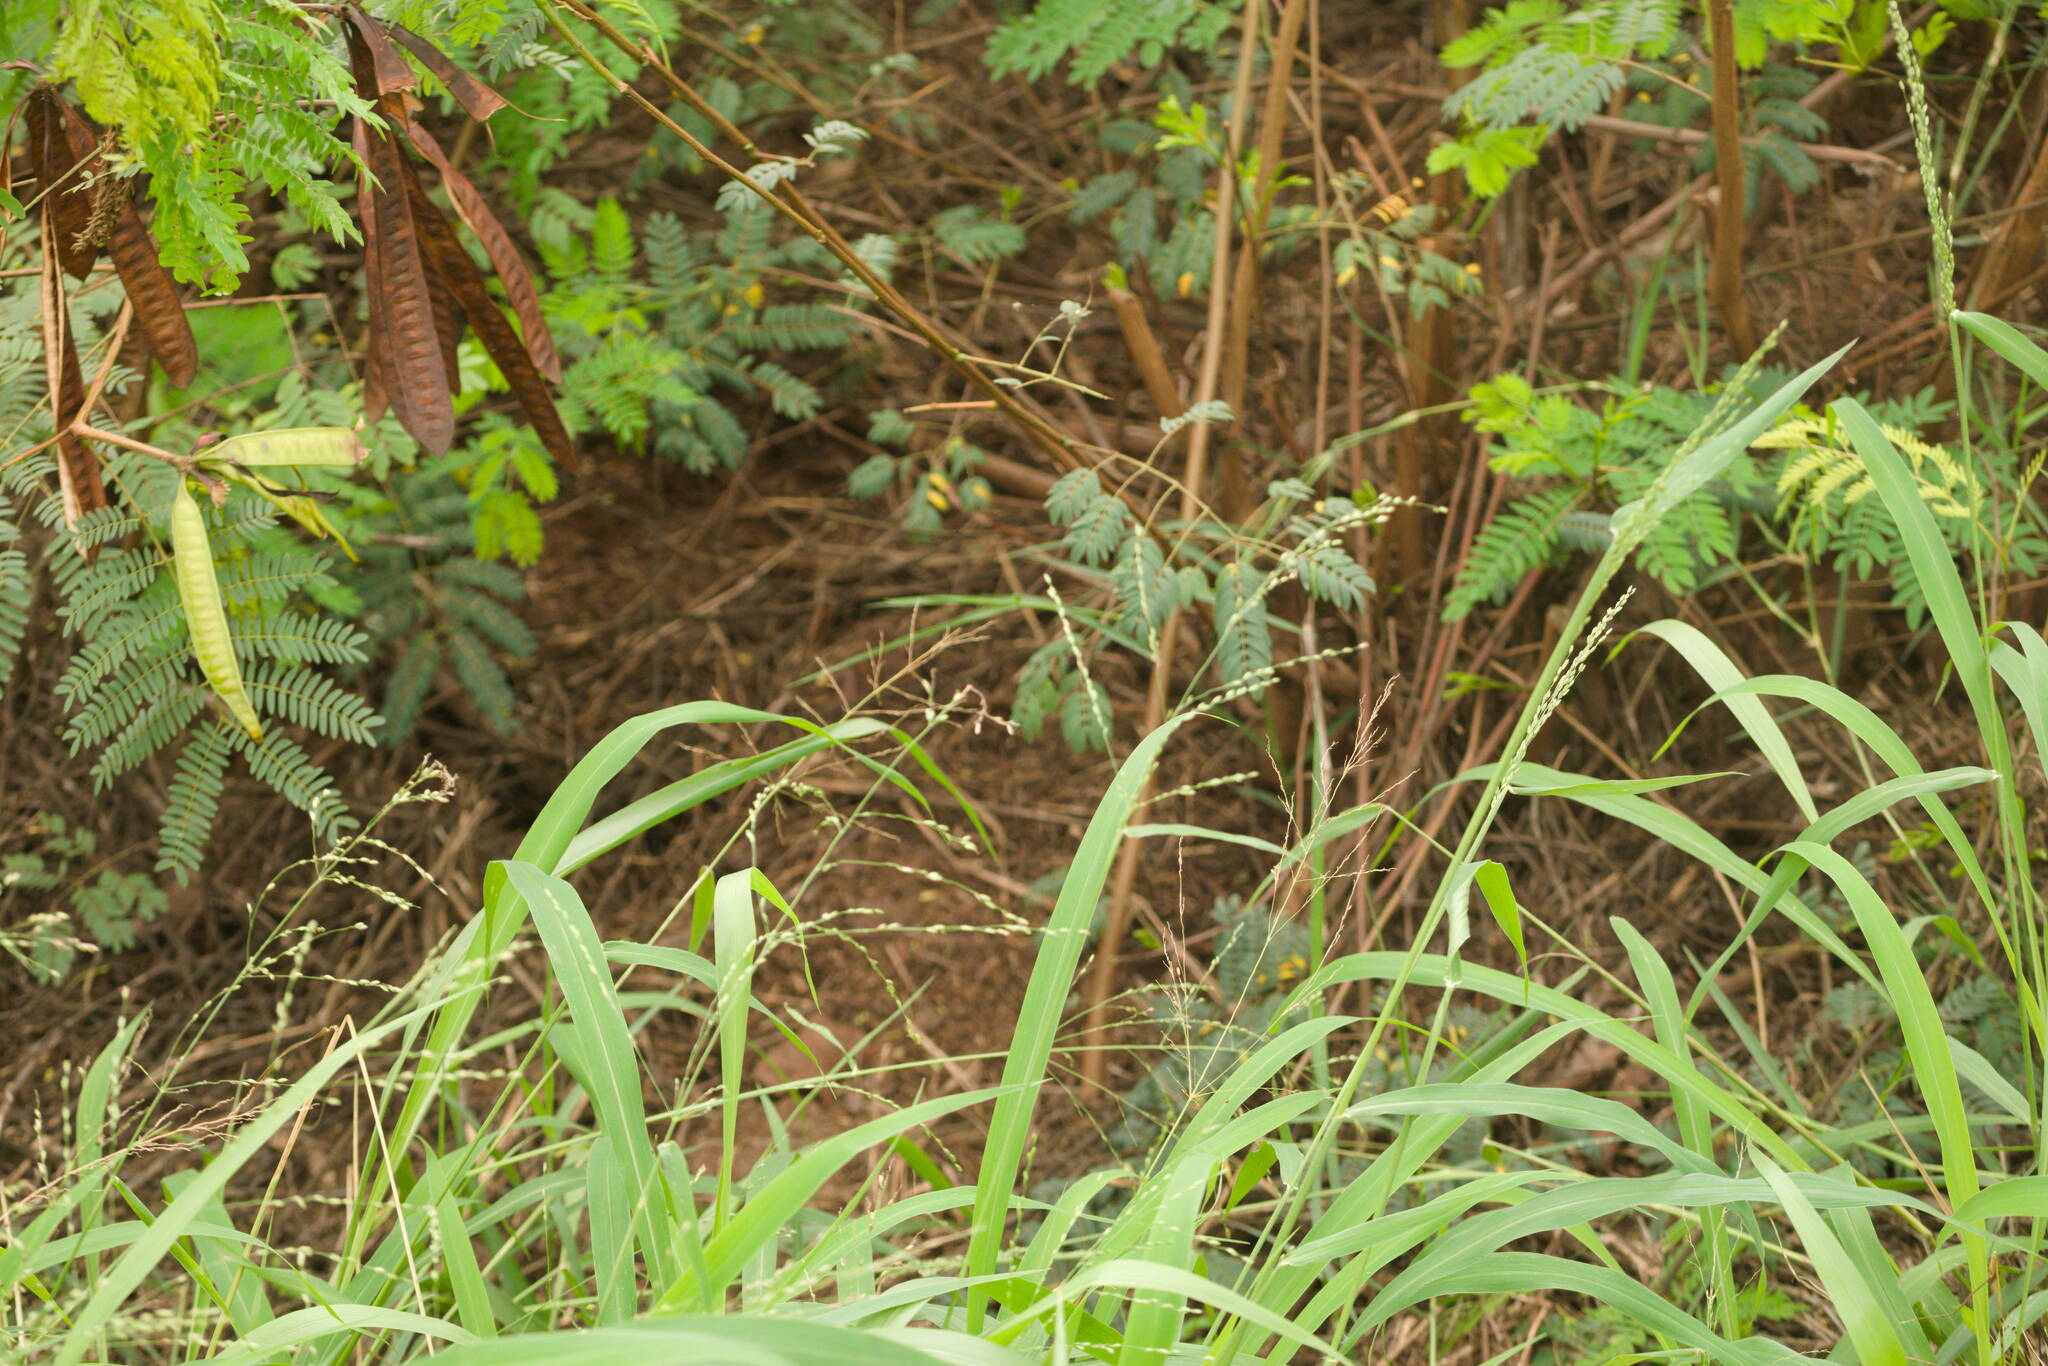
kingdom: Plantae
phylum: Tracheophyta
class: Liliopsida
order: Poales
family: Poaceae
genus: Megathyrsus
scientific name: Megathyrsus maximus
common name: Guineagrass
